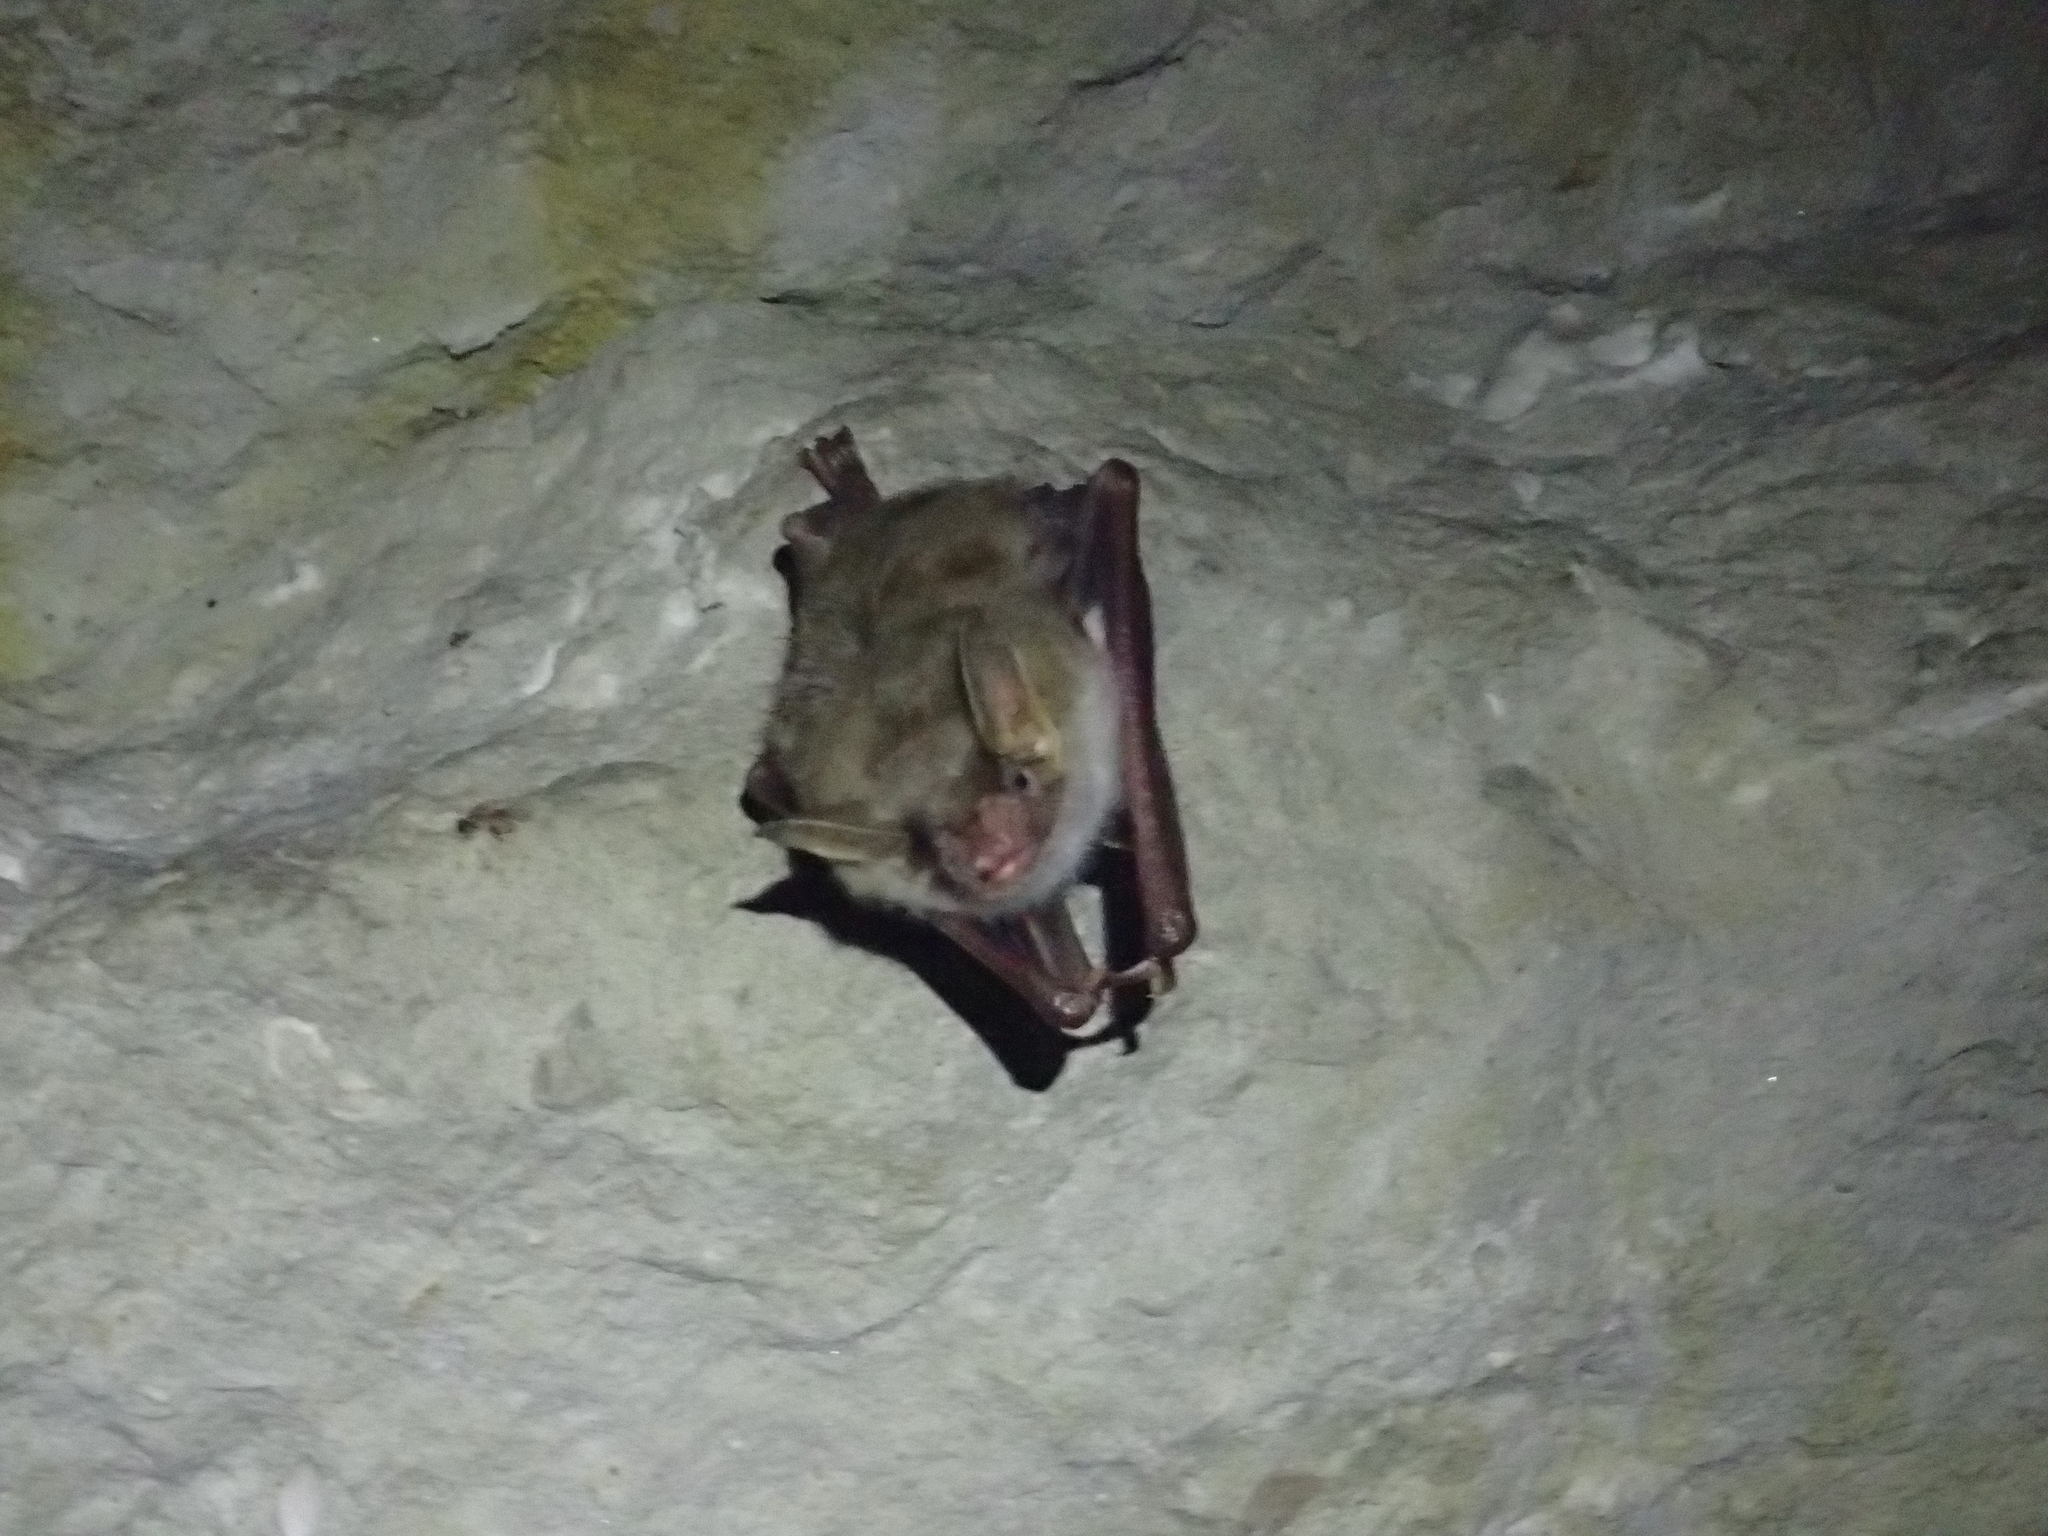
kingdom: Animalia
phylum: Chordata
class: Mammalia
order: Chiroptera
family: Vespertilionidae
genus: Myotis
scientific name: Myotis myotis
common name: Greater mouse-eared bat
